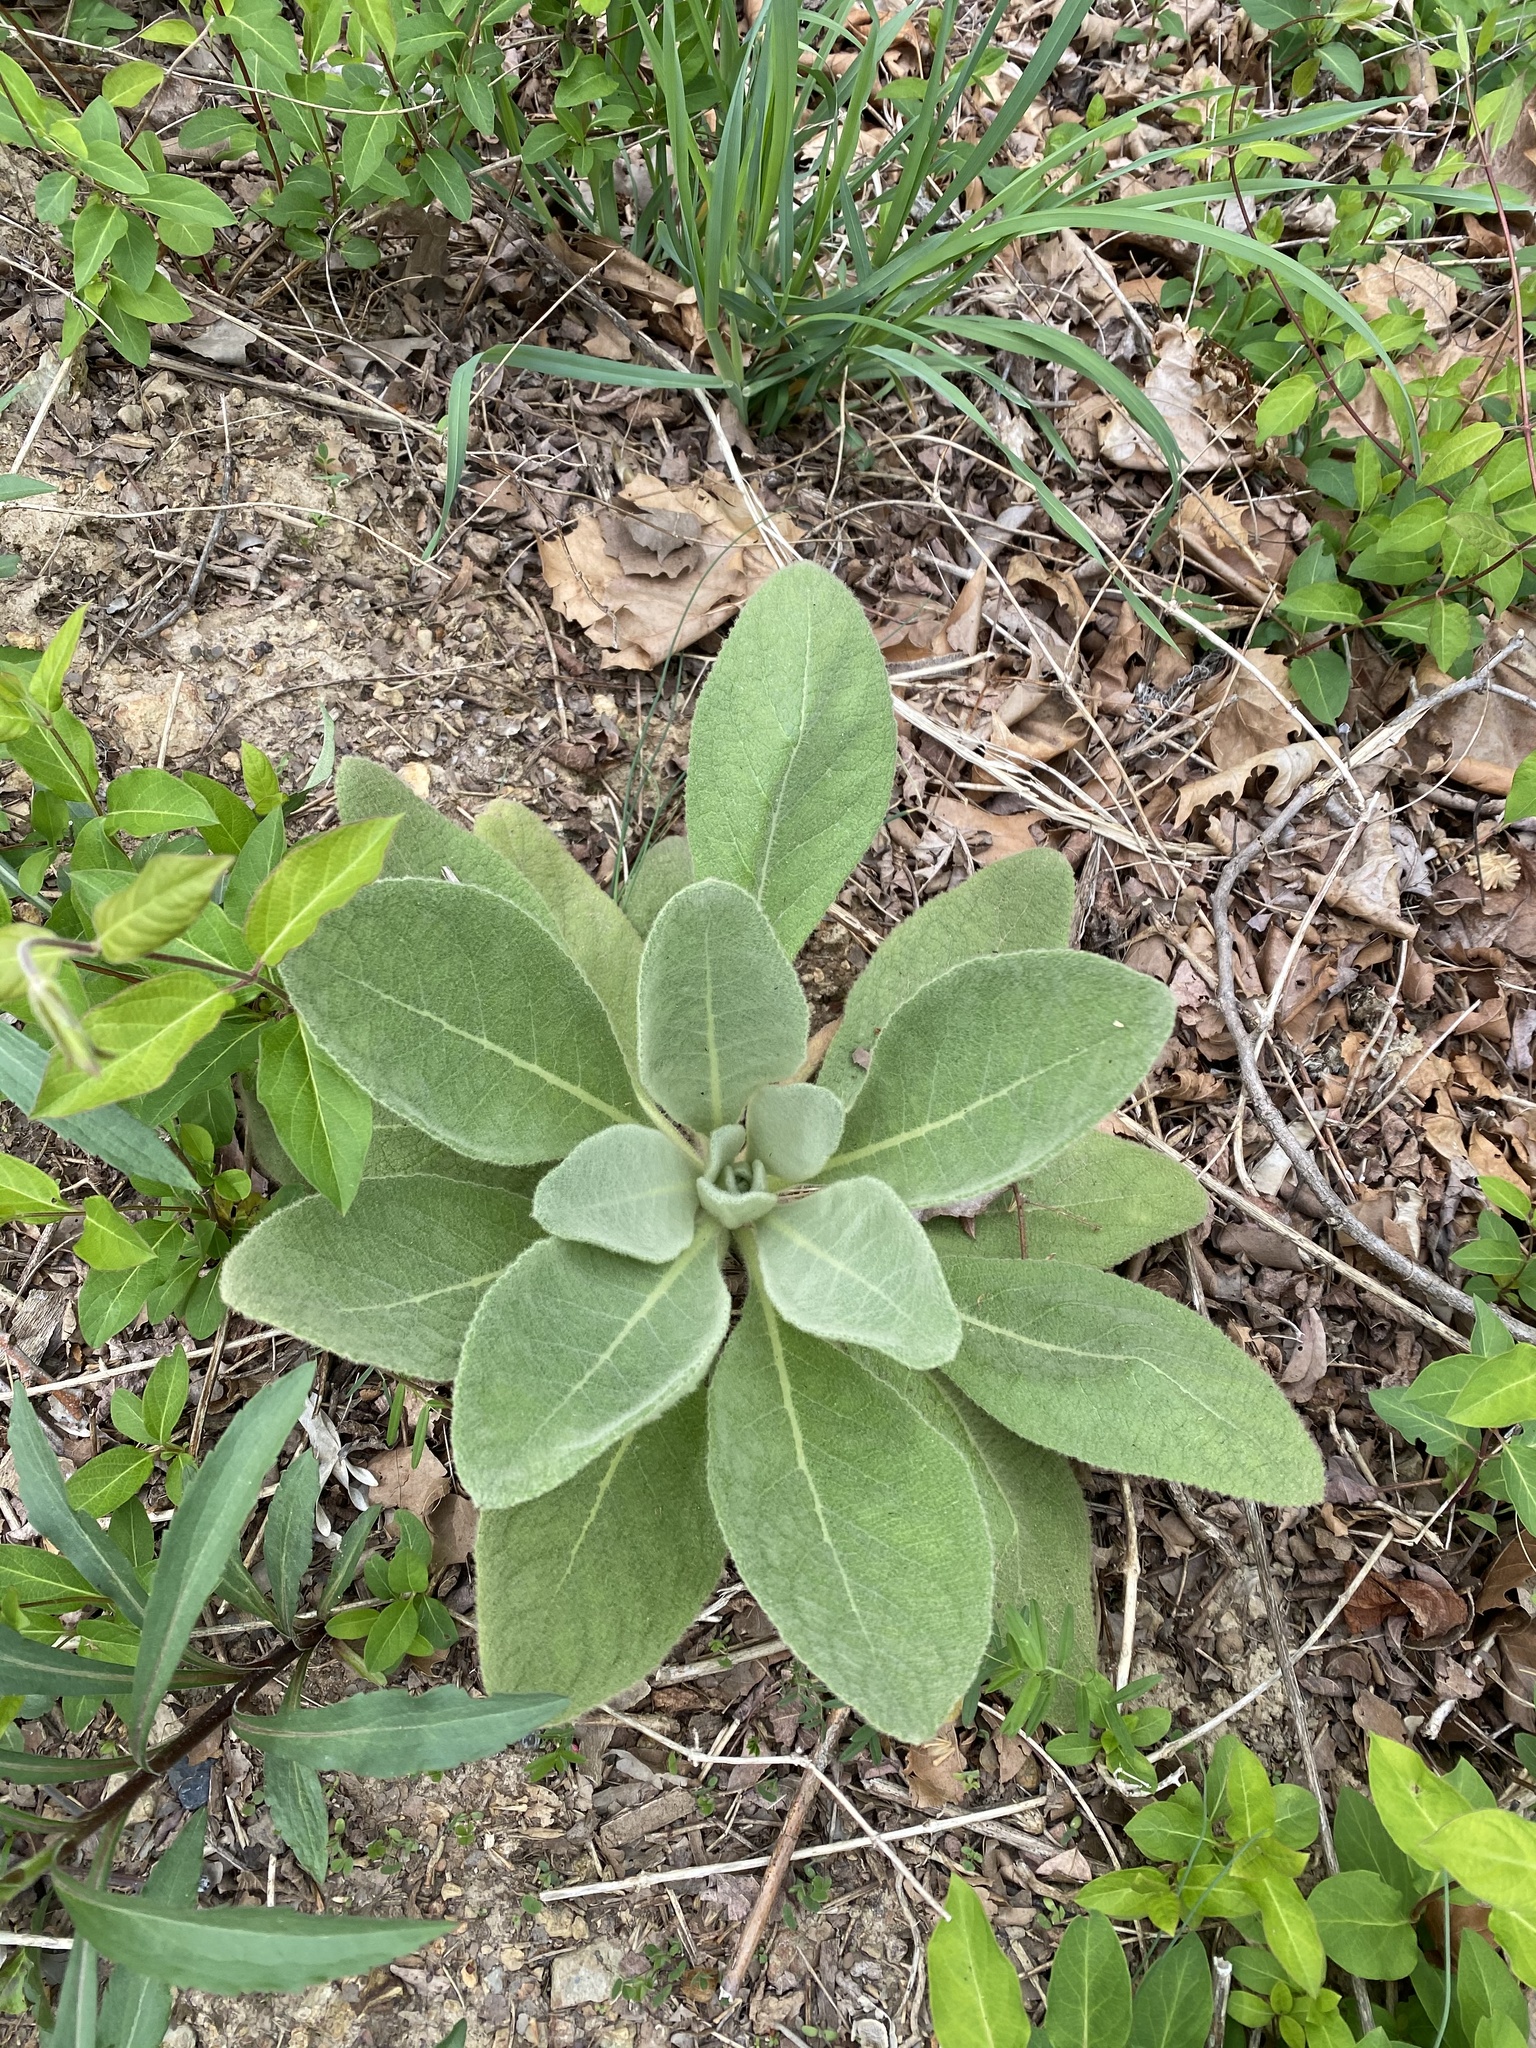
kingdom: Plantae
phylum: Tracheophyta
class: Magnoliopsida
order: Lamiales
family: Scrophulariaceae
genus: Verbascum
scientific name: Verbascum thapsus
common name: Common mullein
